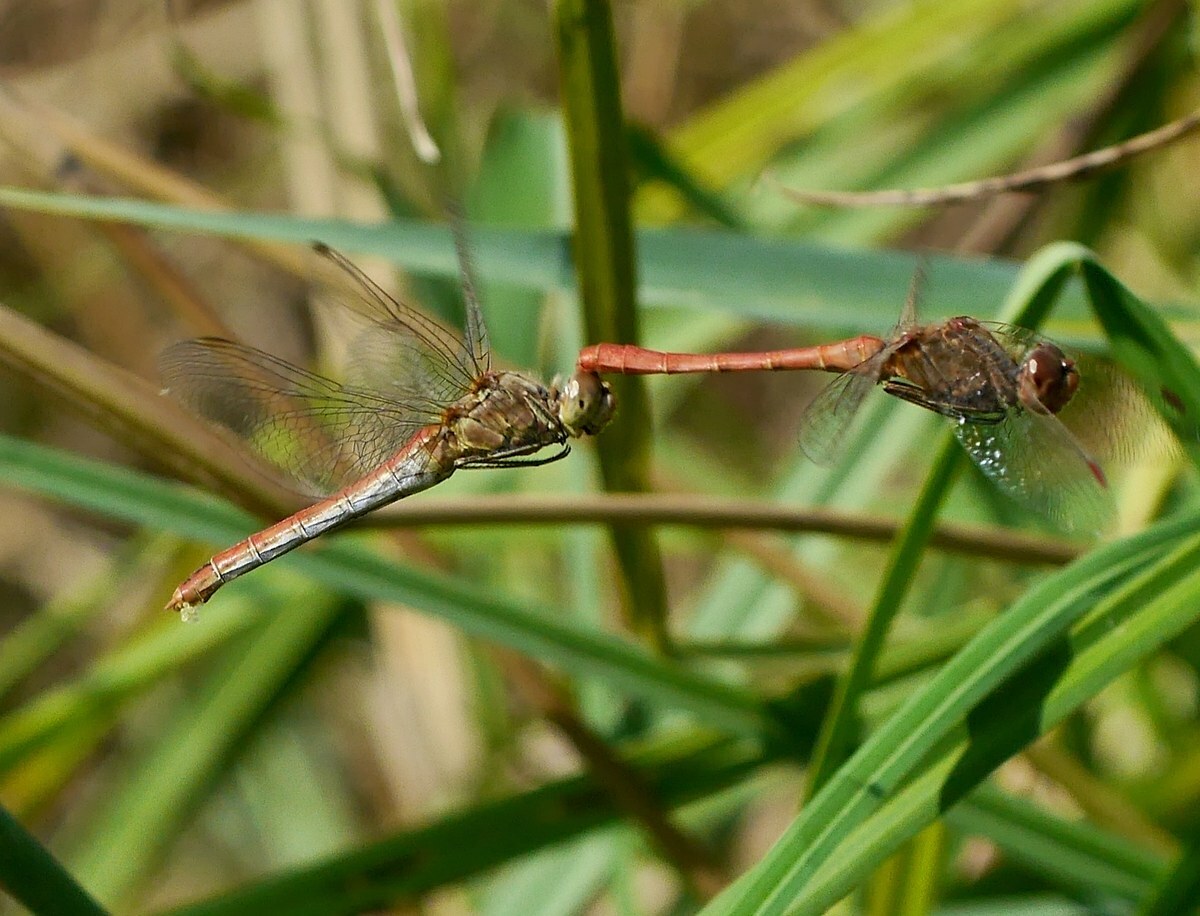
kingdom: Animalia
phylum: Arthropoda
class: Insecta
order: Odonata
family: Libellulidae
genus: Sympetrum
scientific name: Sympetrum meridionale
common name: Southern darter
